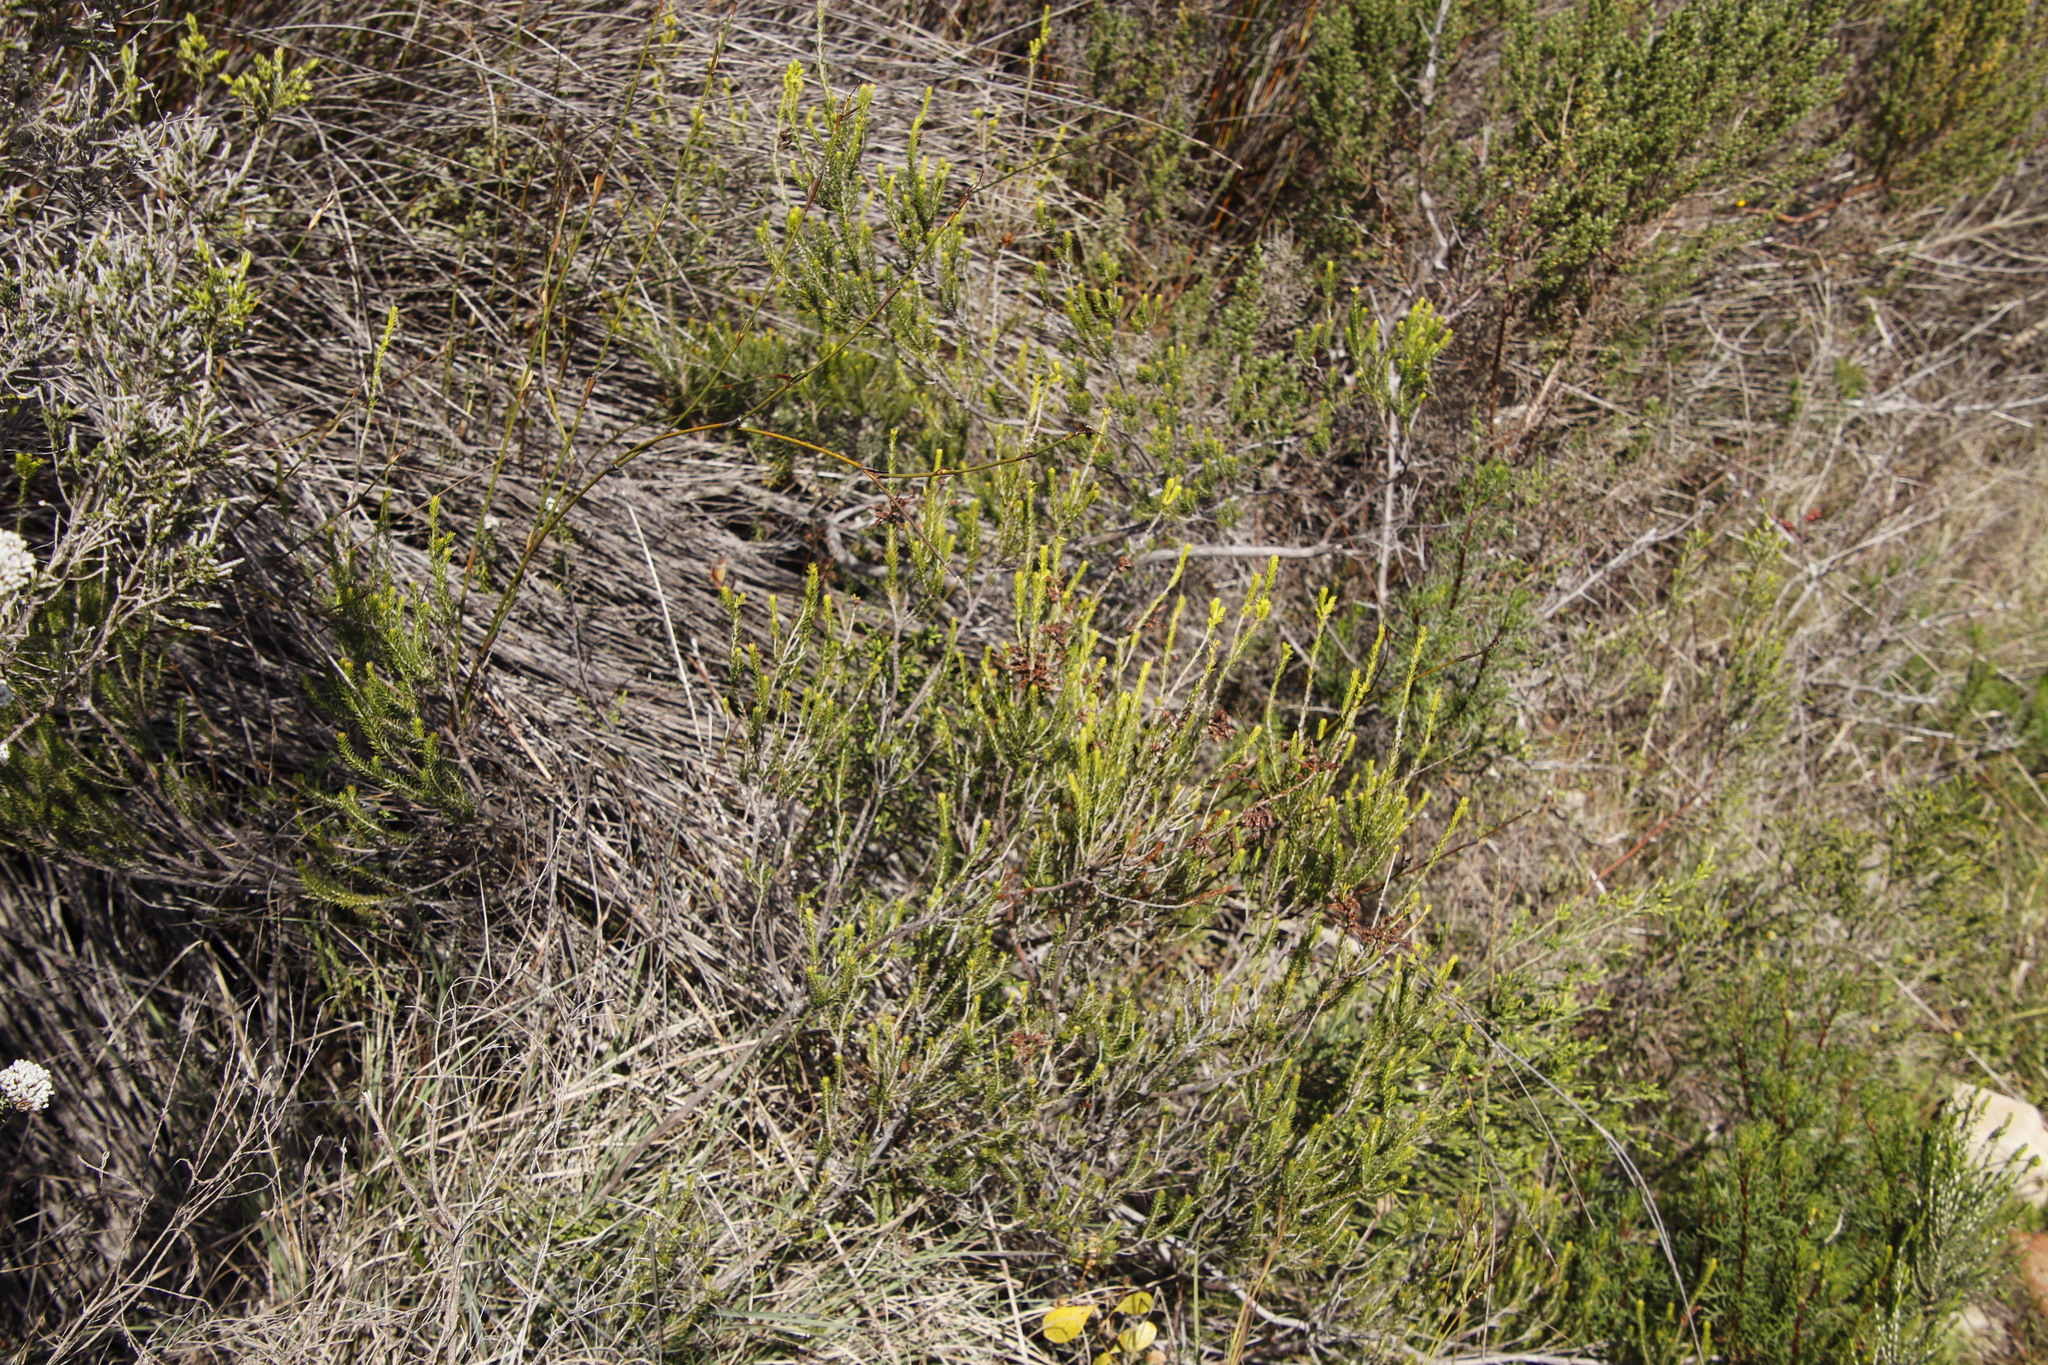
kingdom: Plantae
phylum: Tracheophyta
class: Magnoliopsida
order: Ericales
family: Ericaceae
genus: Erica
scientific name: Erica mammosa
